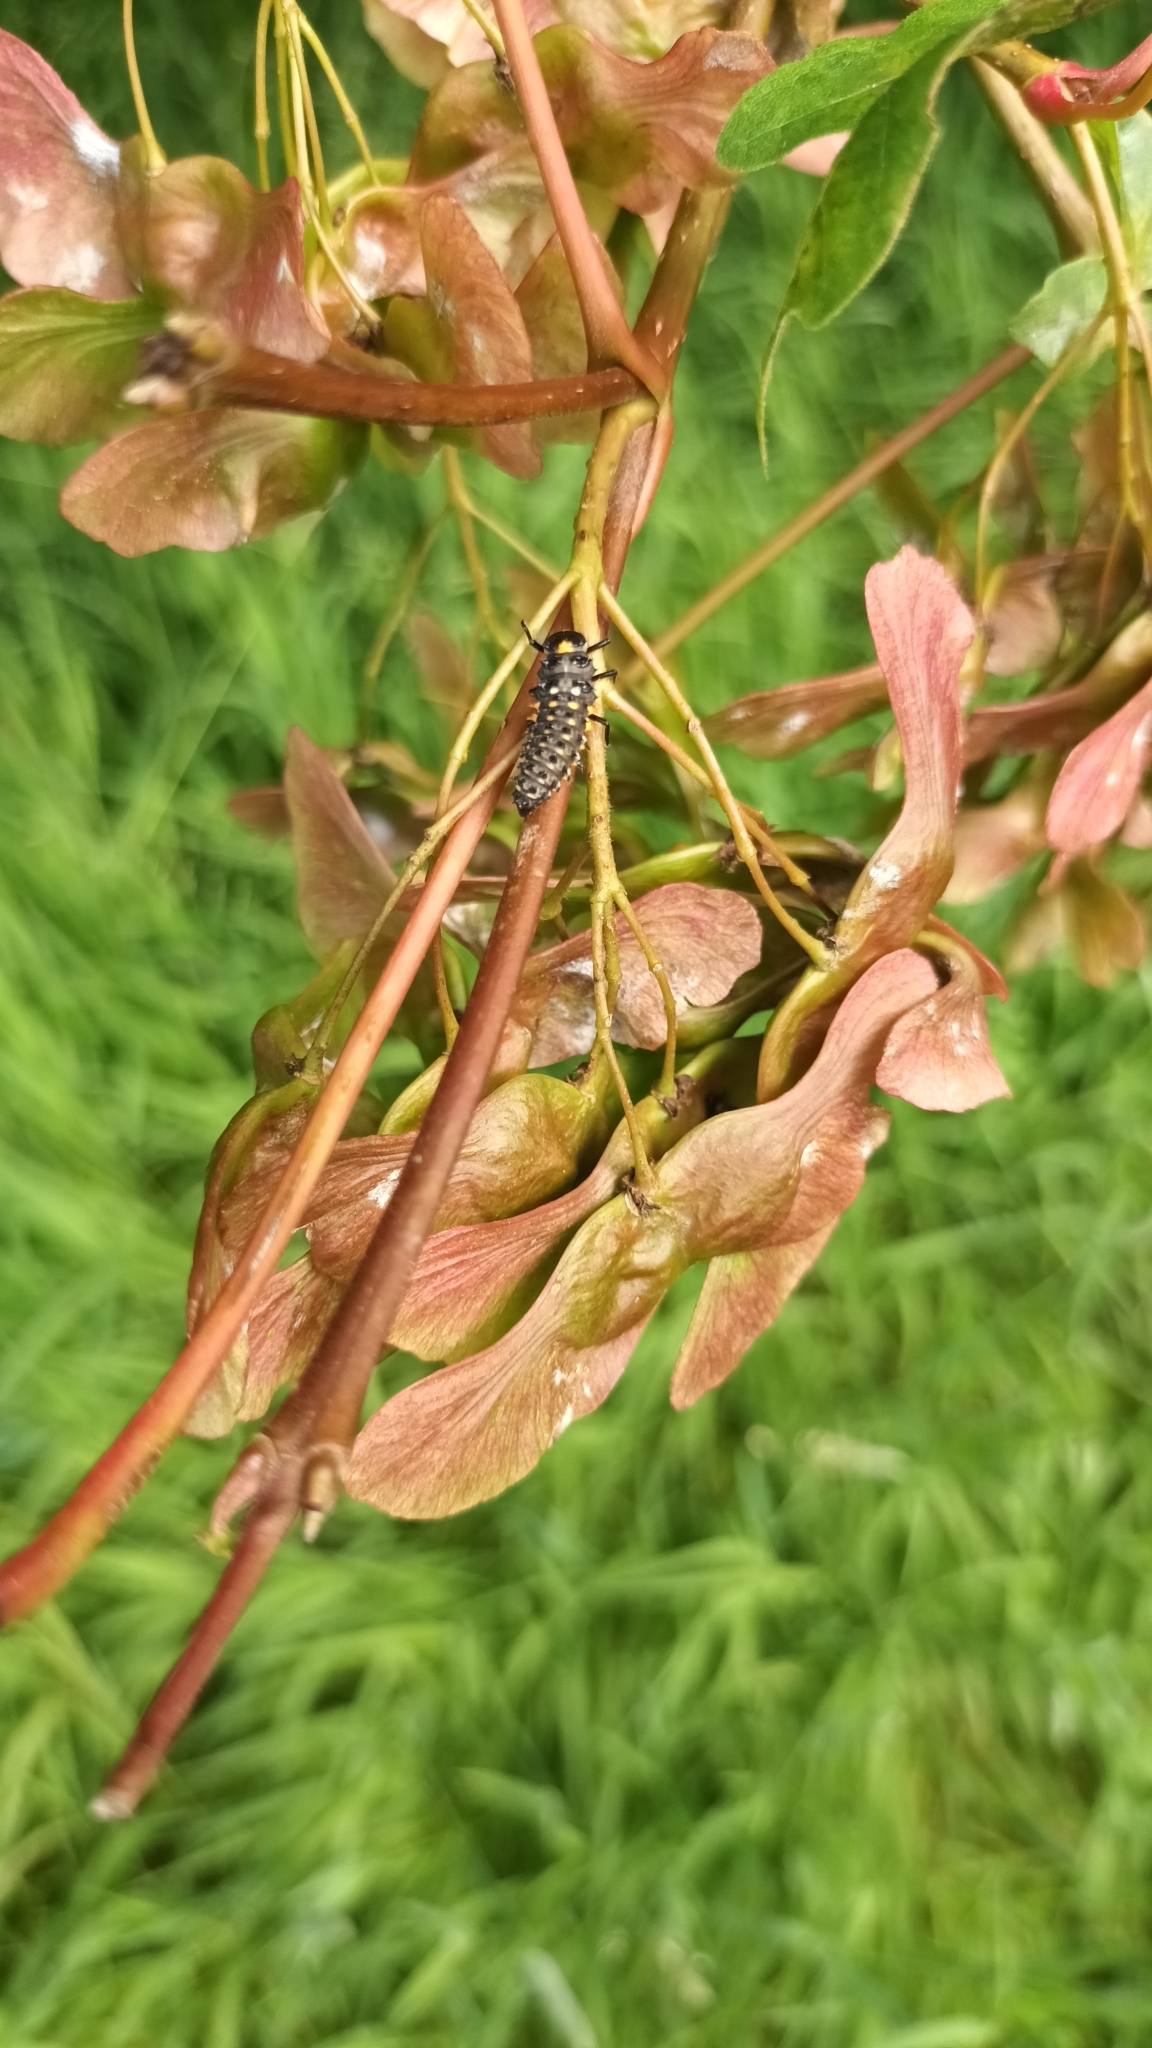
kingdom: Animalia
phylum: Arthropoda
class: Insecta
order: Coleoptera
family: Coccinellidae
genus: Anatis
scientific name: Anatis ocellata
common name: Eyed ladybird
